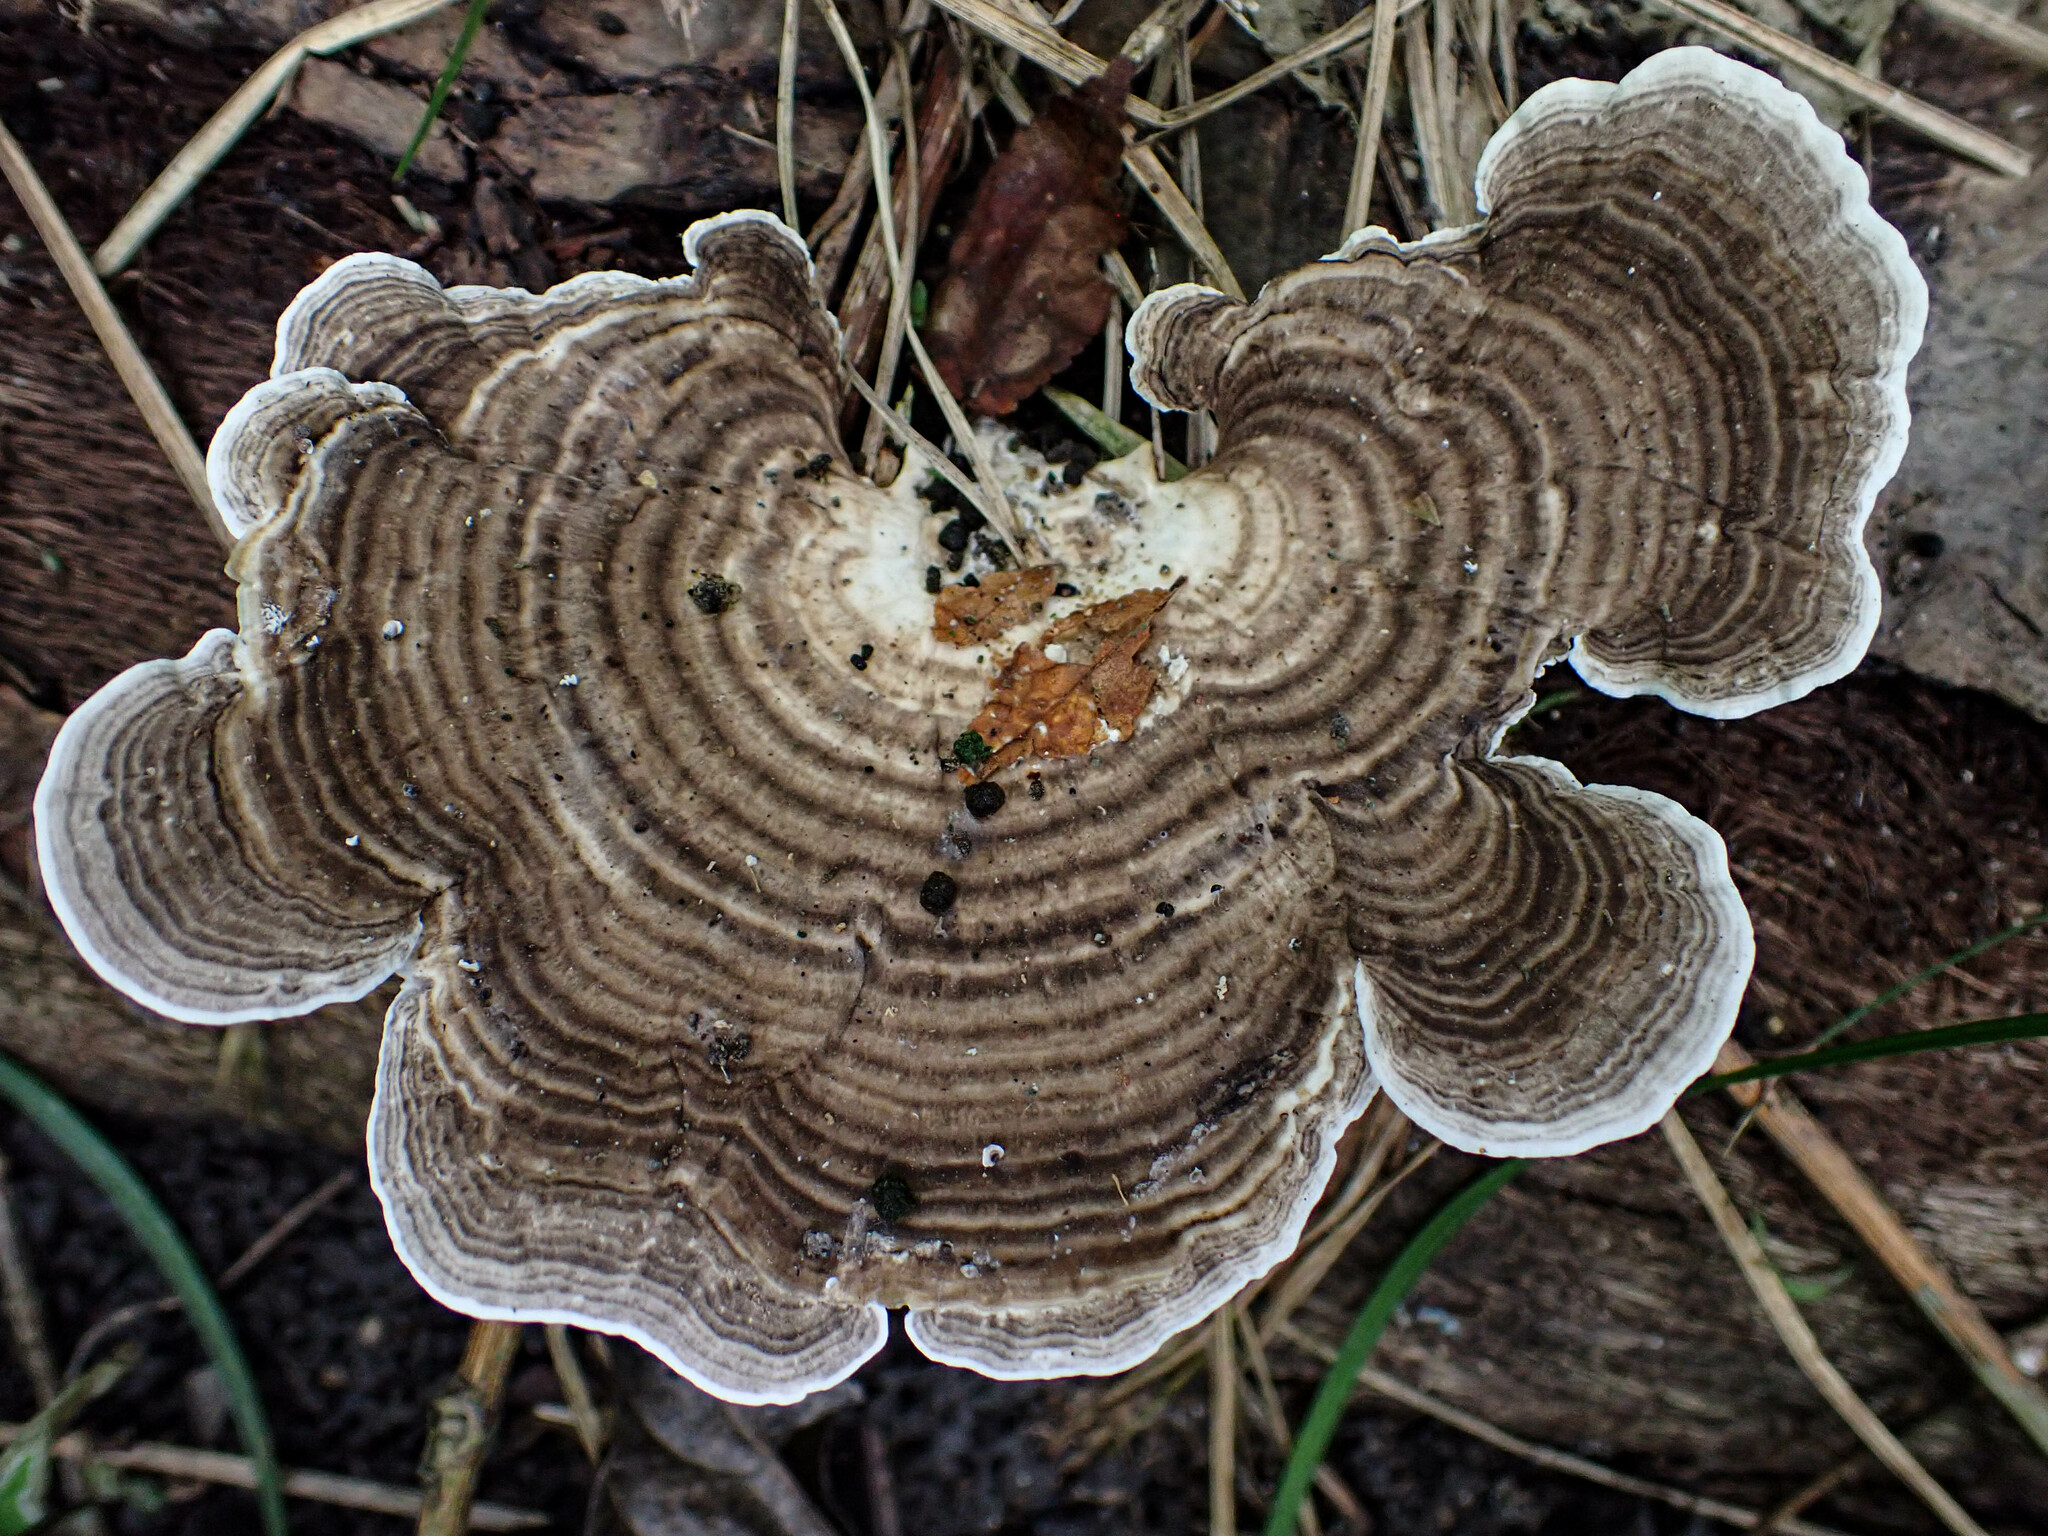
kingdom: Fungi
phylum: Basidiomycota
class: Agaricomycetes
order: Polyporales
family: Polyporaceae
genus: Cubamyces
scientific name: Cubamyces menziesii
